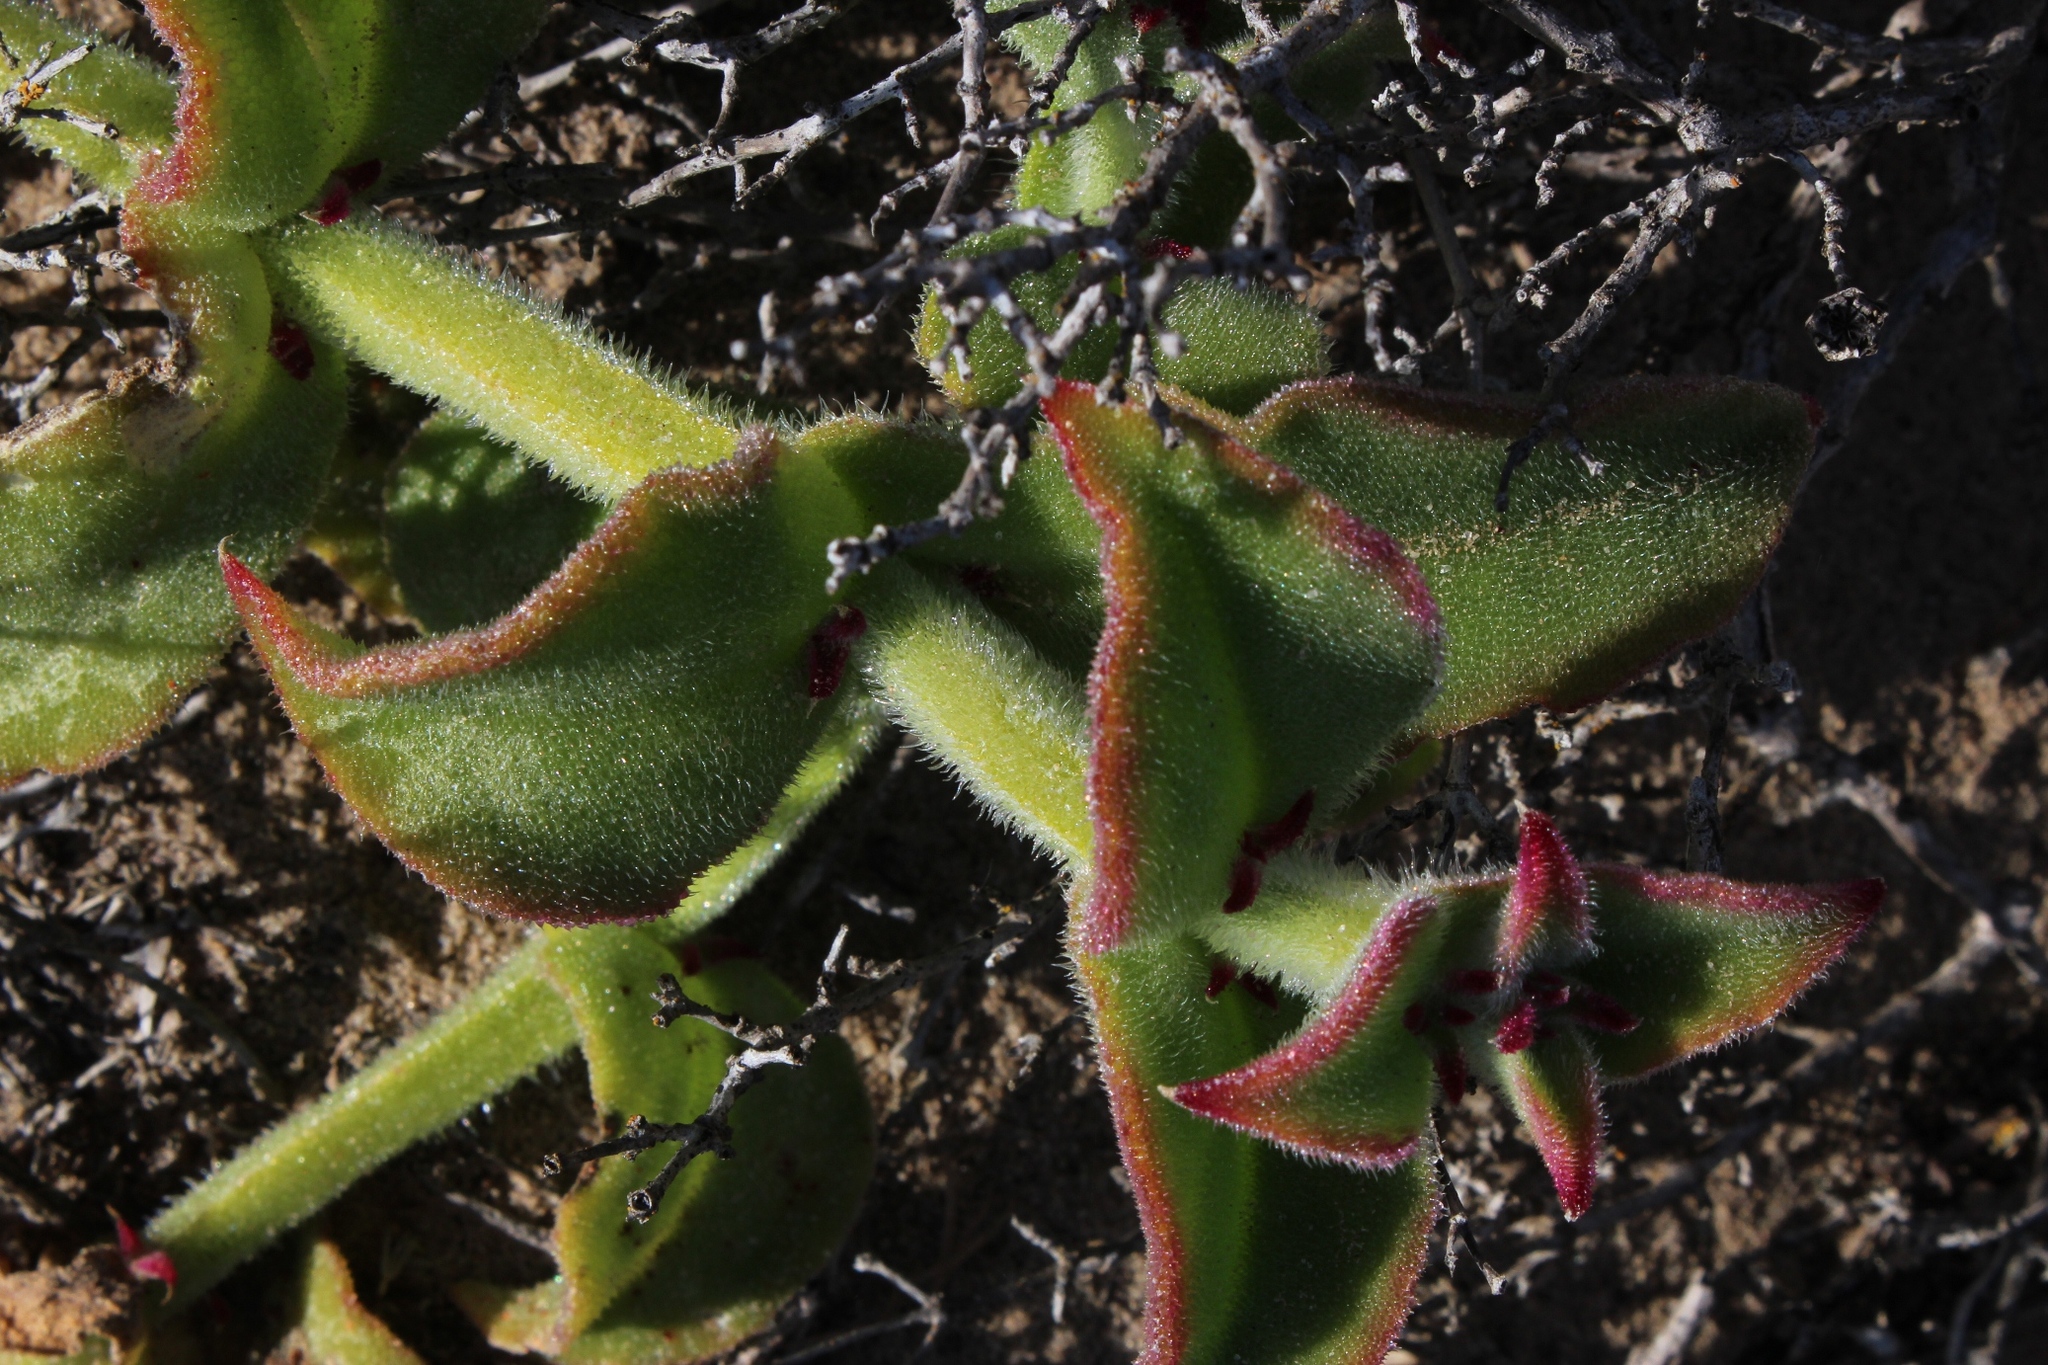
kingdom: Plantae
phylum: Tracheophyta
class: Magnoliopsida
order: Caryophyllales
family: Aizoaceae
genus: Mesembryanthemum
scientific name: Mesembryanthemum pellitum
